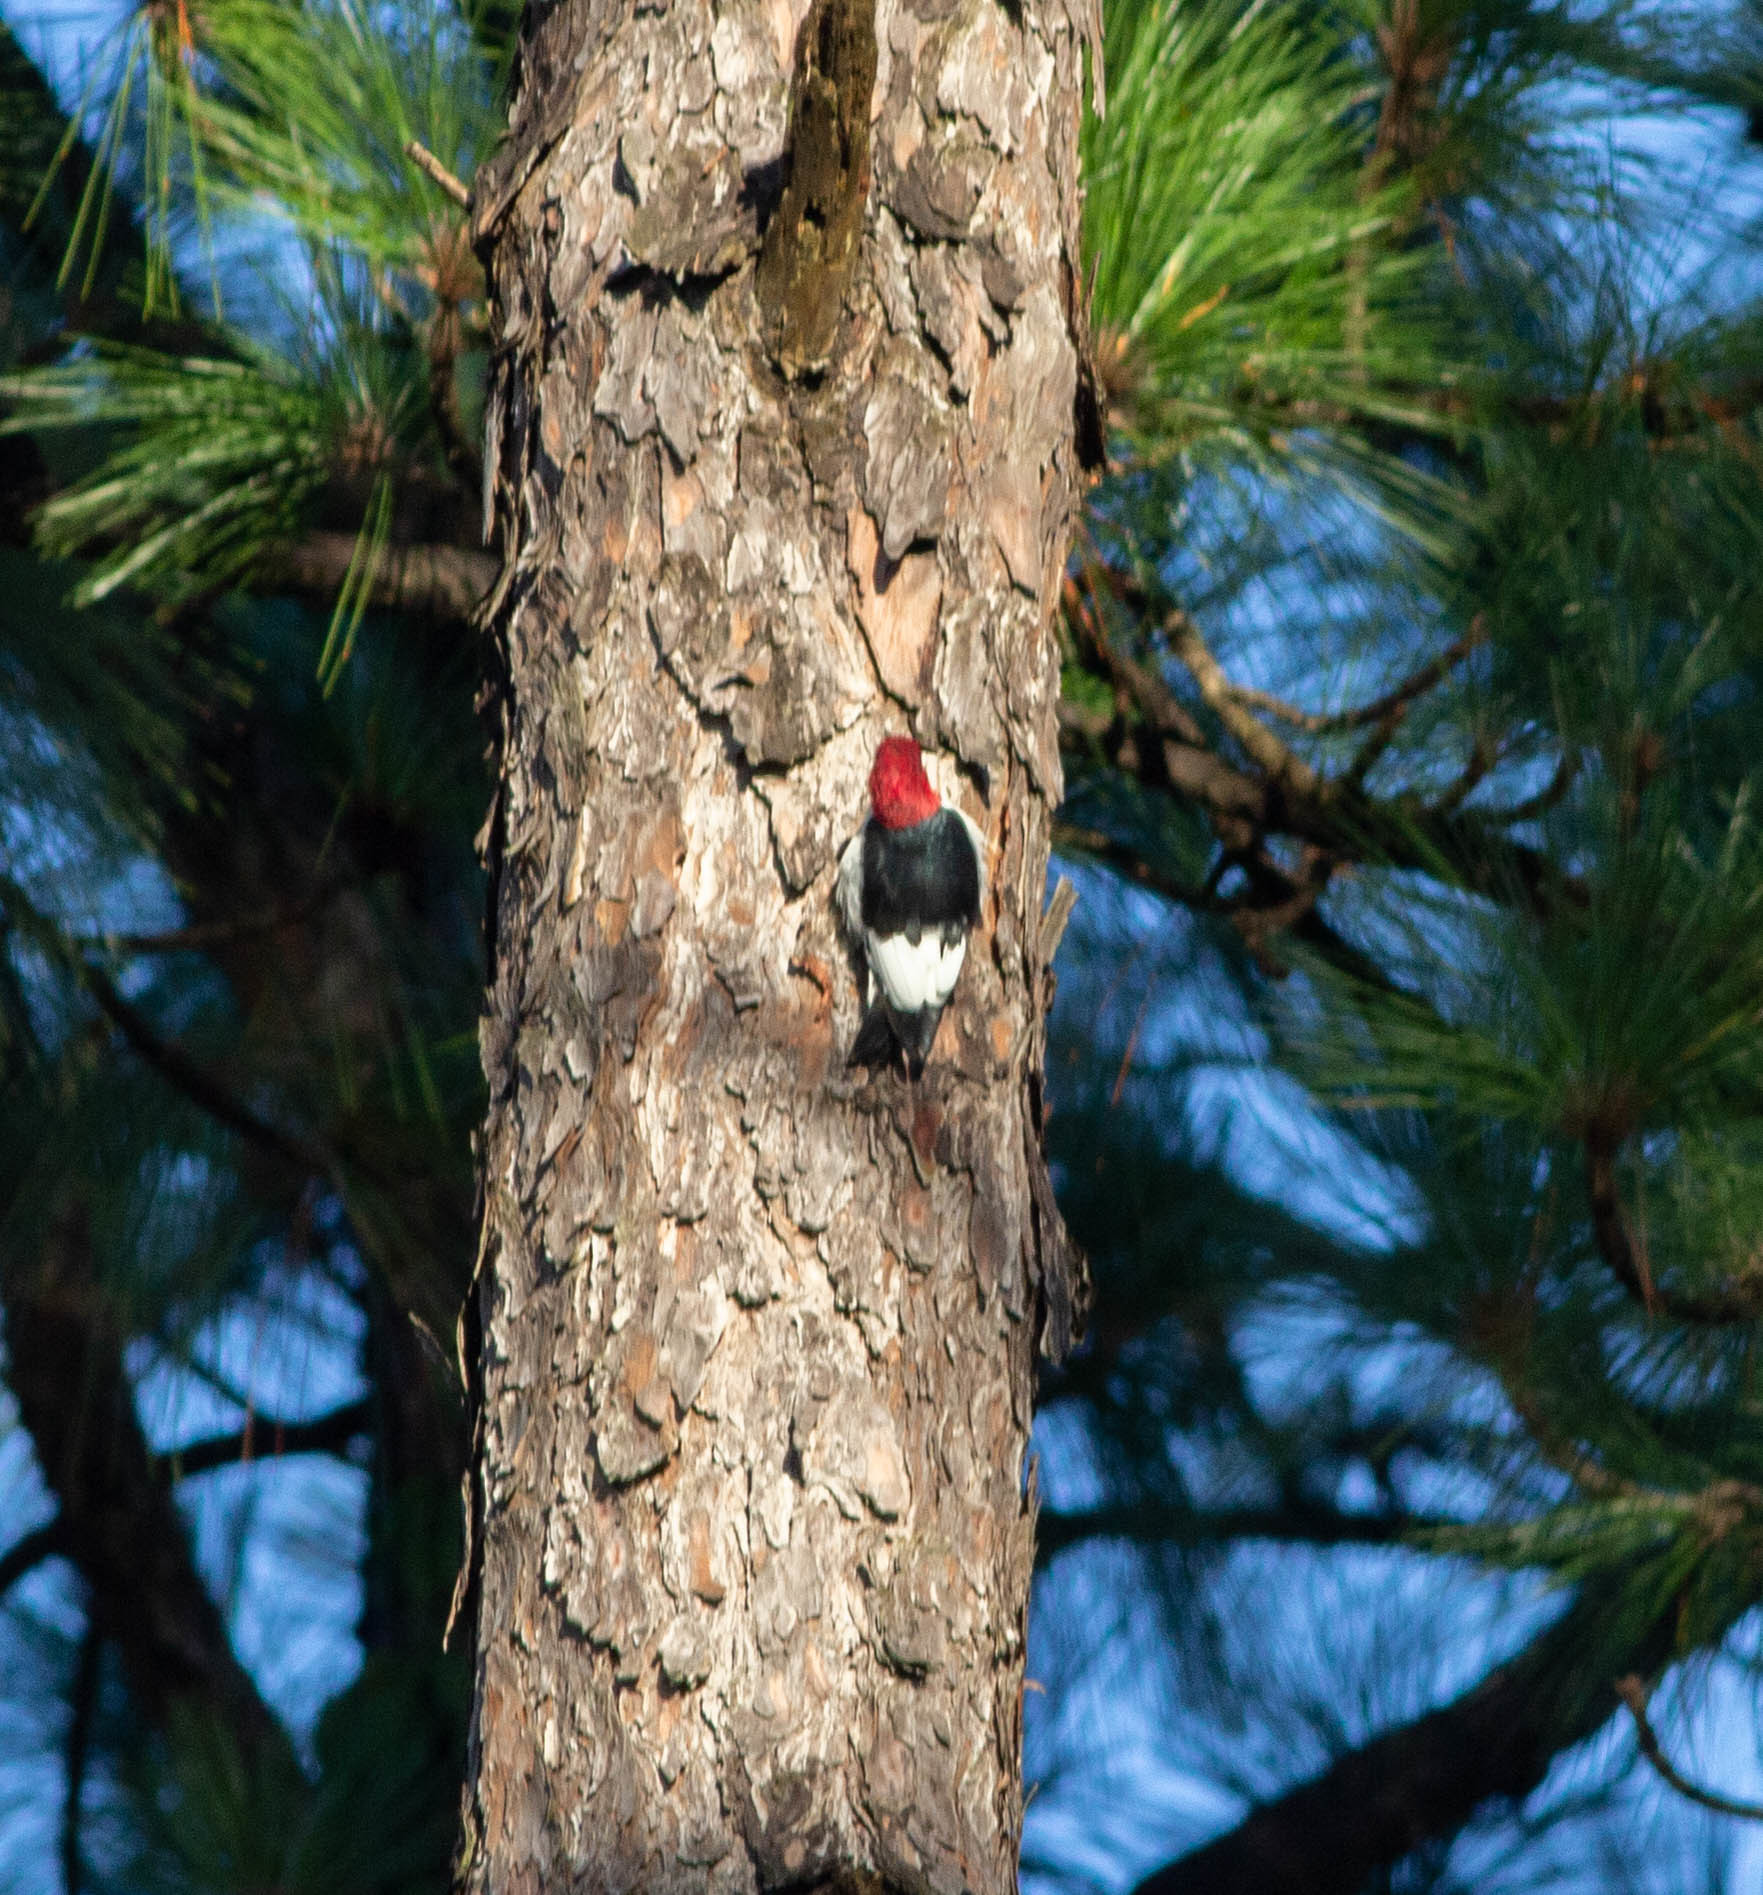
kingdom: Animalia
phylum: Chordata
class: Aves
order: Piciformes
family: Picidae
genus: Melanerpes
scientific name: Melanerpes erythrocephalus
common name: Red-headed woodpecker
